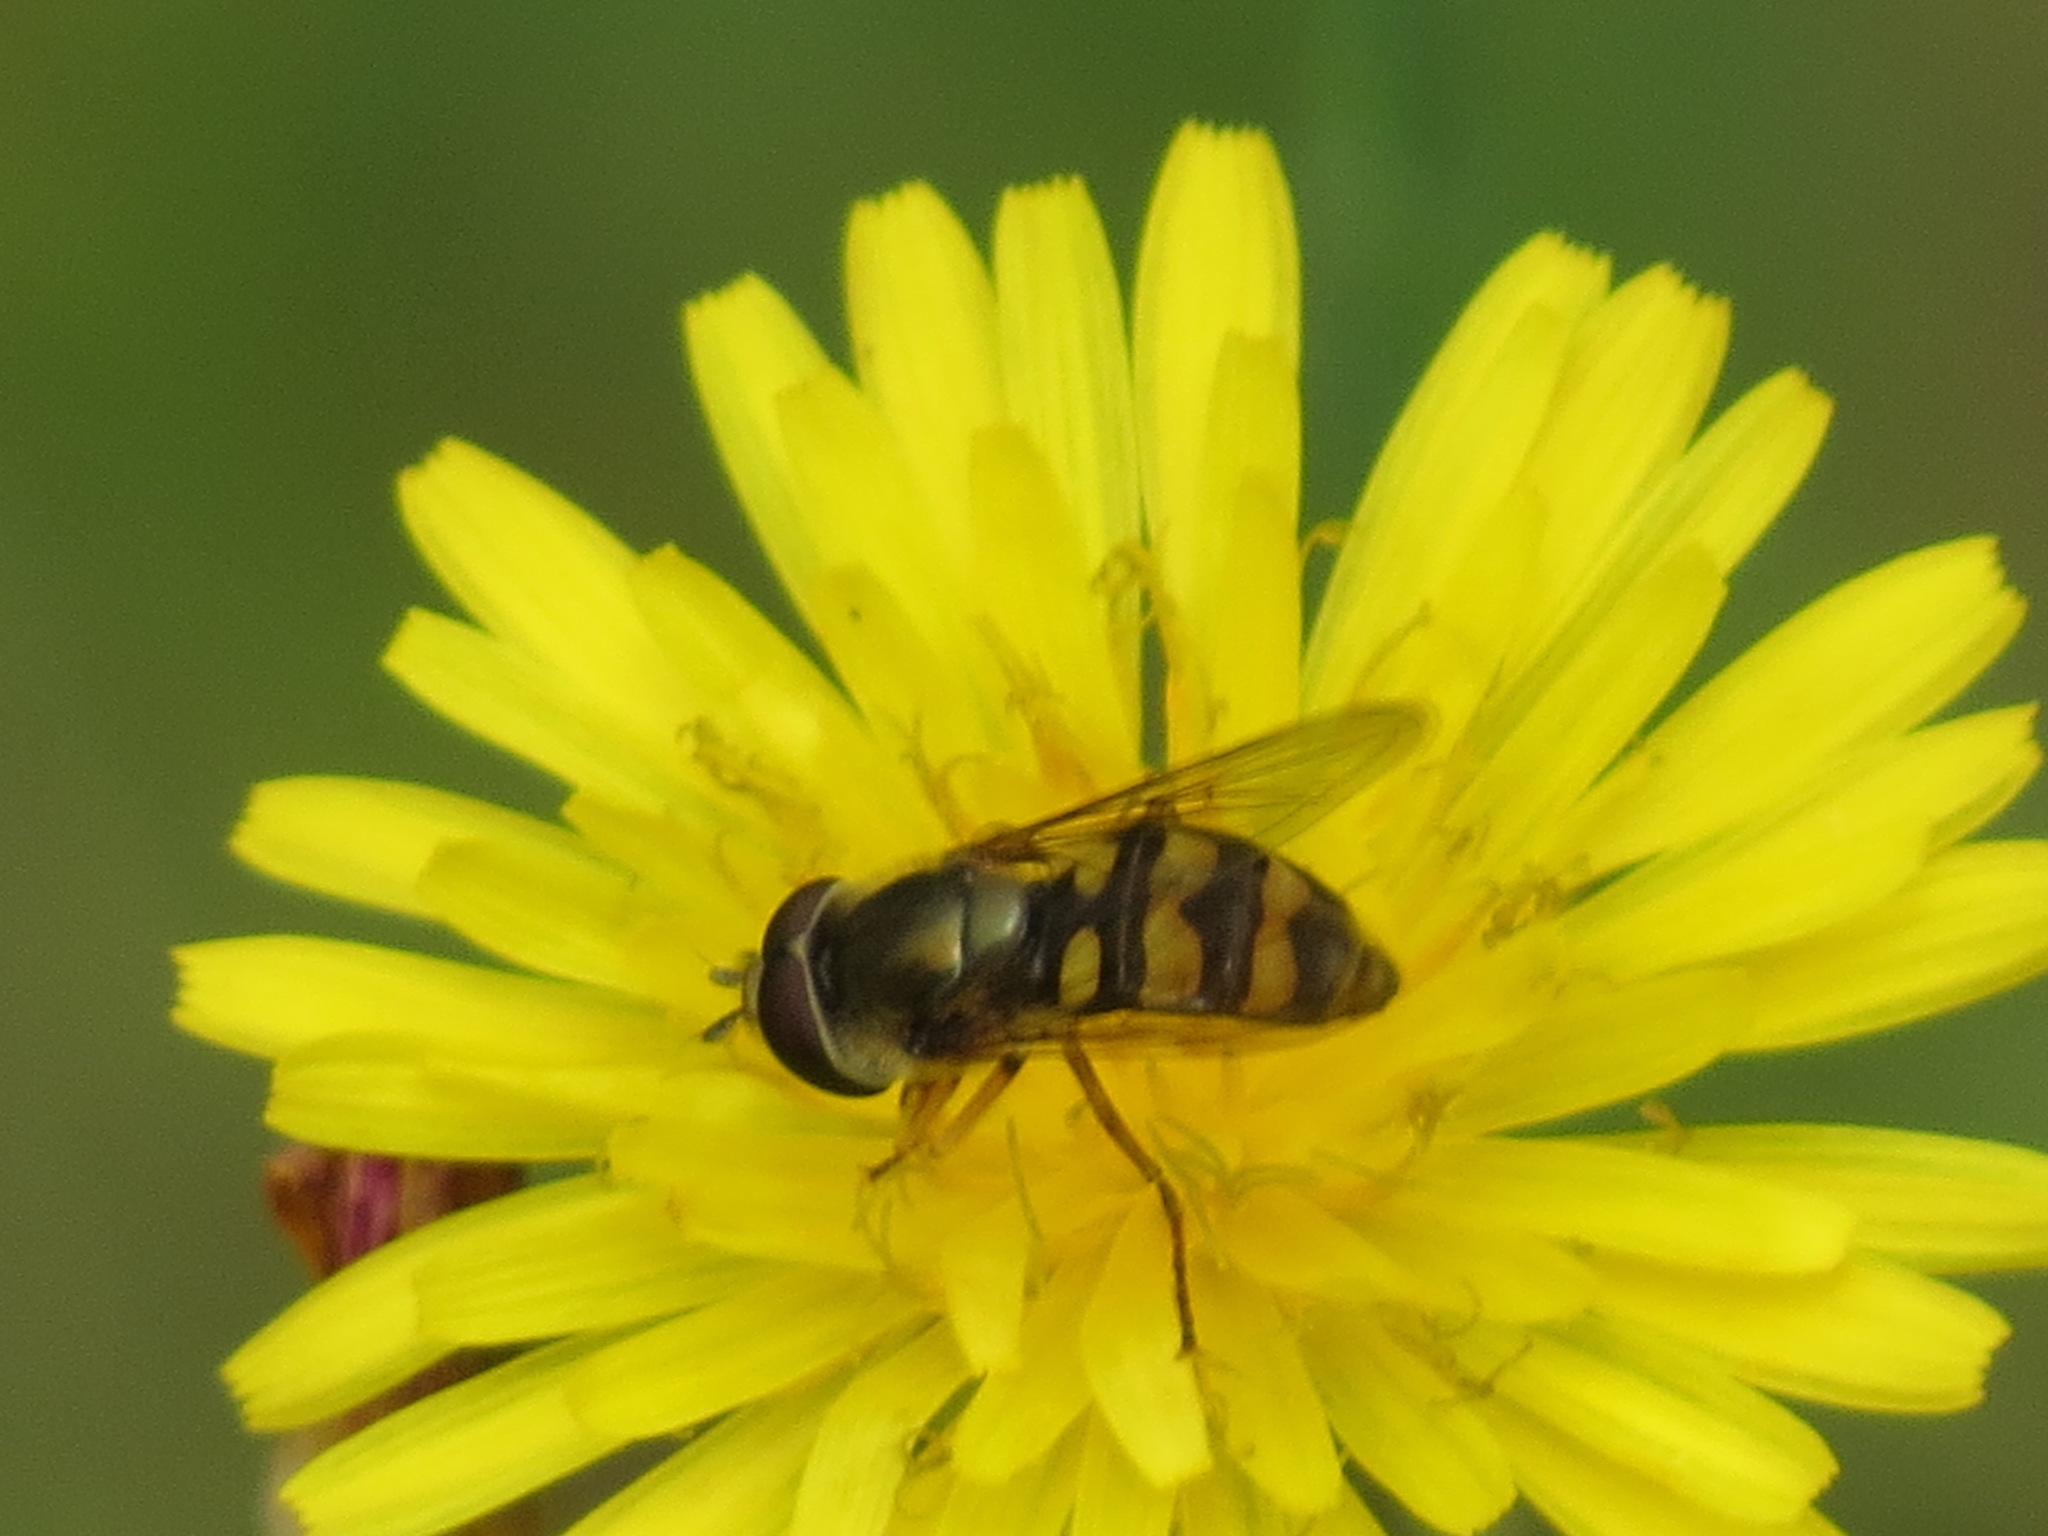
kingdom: Animalia
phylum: Arthropoda
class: Insecta
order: Diptera
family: Syrphidae
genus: Eupeodes
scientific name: Eupeodes fumipennis
